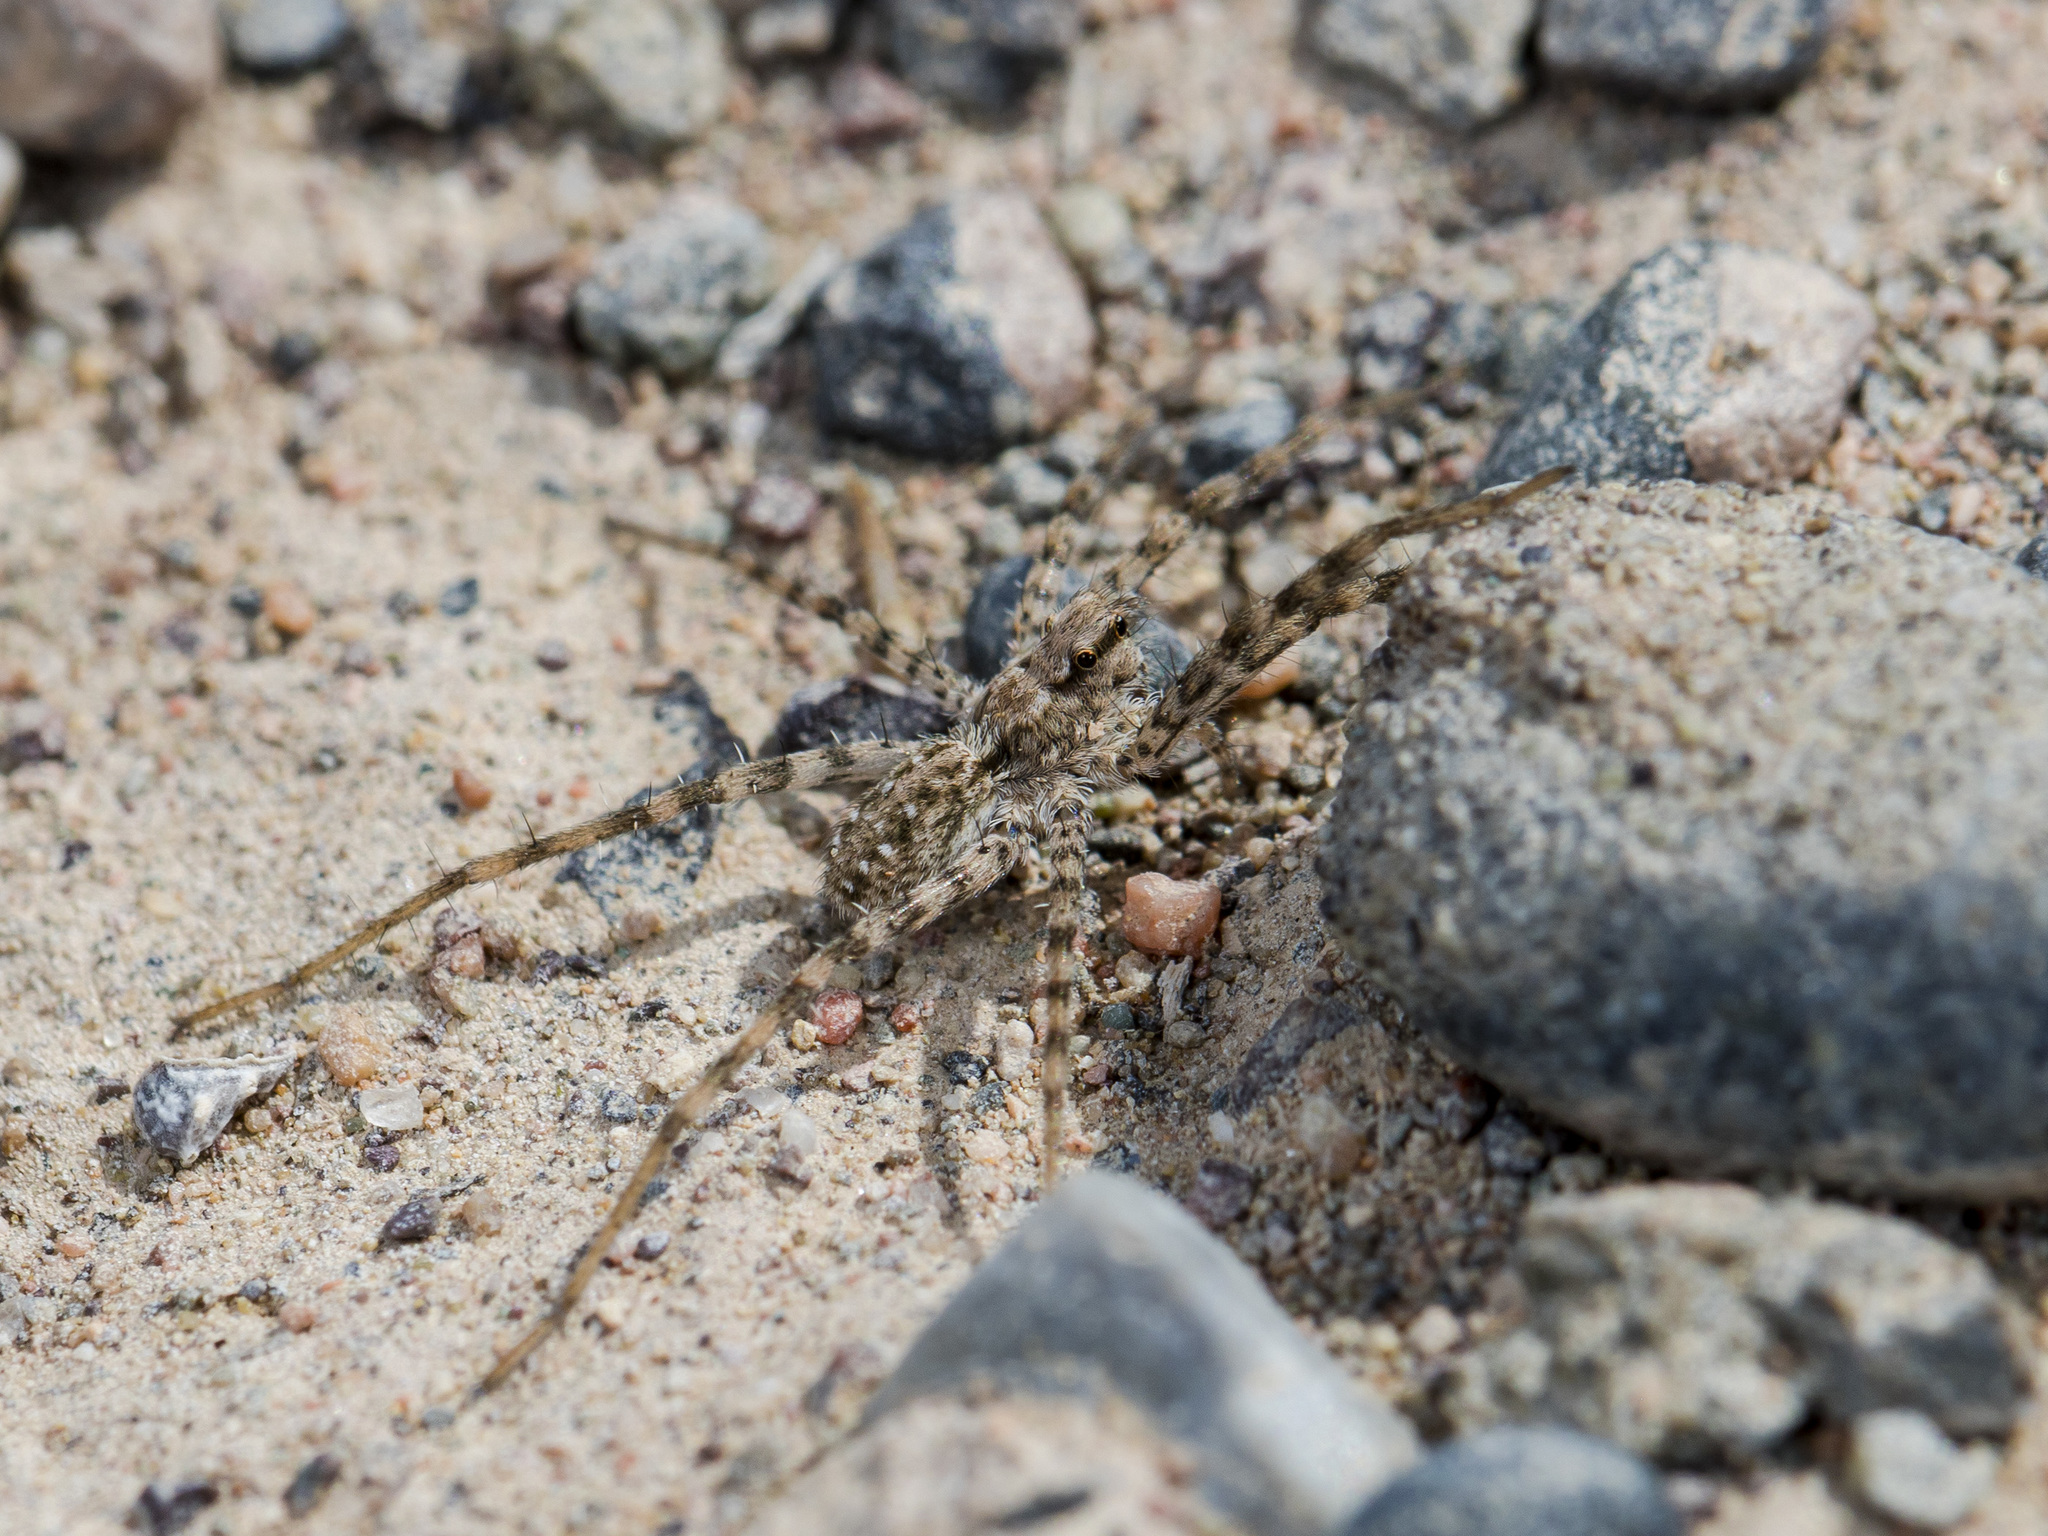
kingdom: Animalia
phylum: Arthropoda
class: Arachnida
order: Araneae
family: Lycosidae
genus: Evippa
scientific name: Evippa sjostedti
